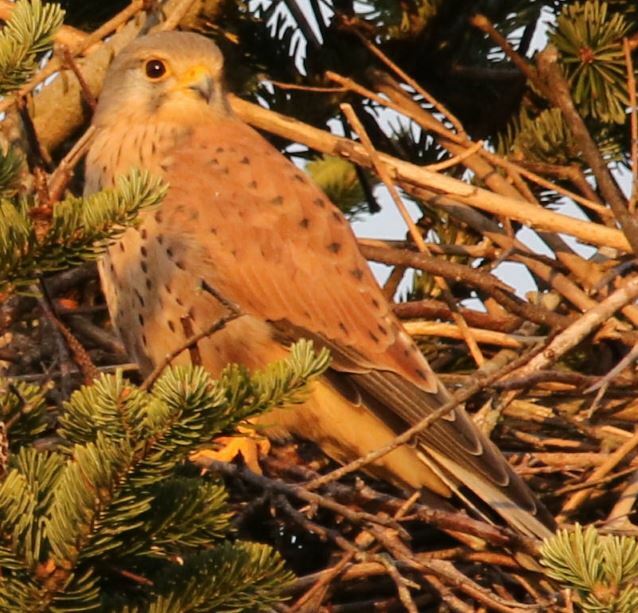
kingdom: Animalia
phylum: Chordata
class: Aves
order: Falconiformes
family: Falconidae
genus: Falco
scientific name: Falco tinnunculus
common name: Common kestrel
